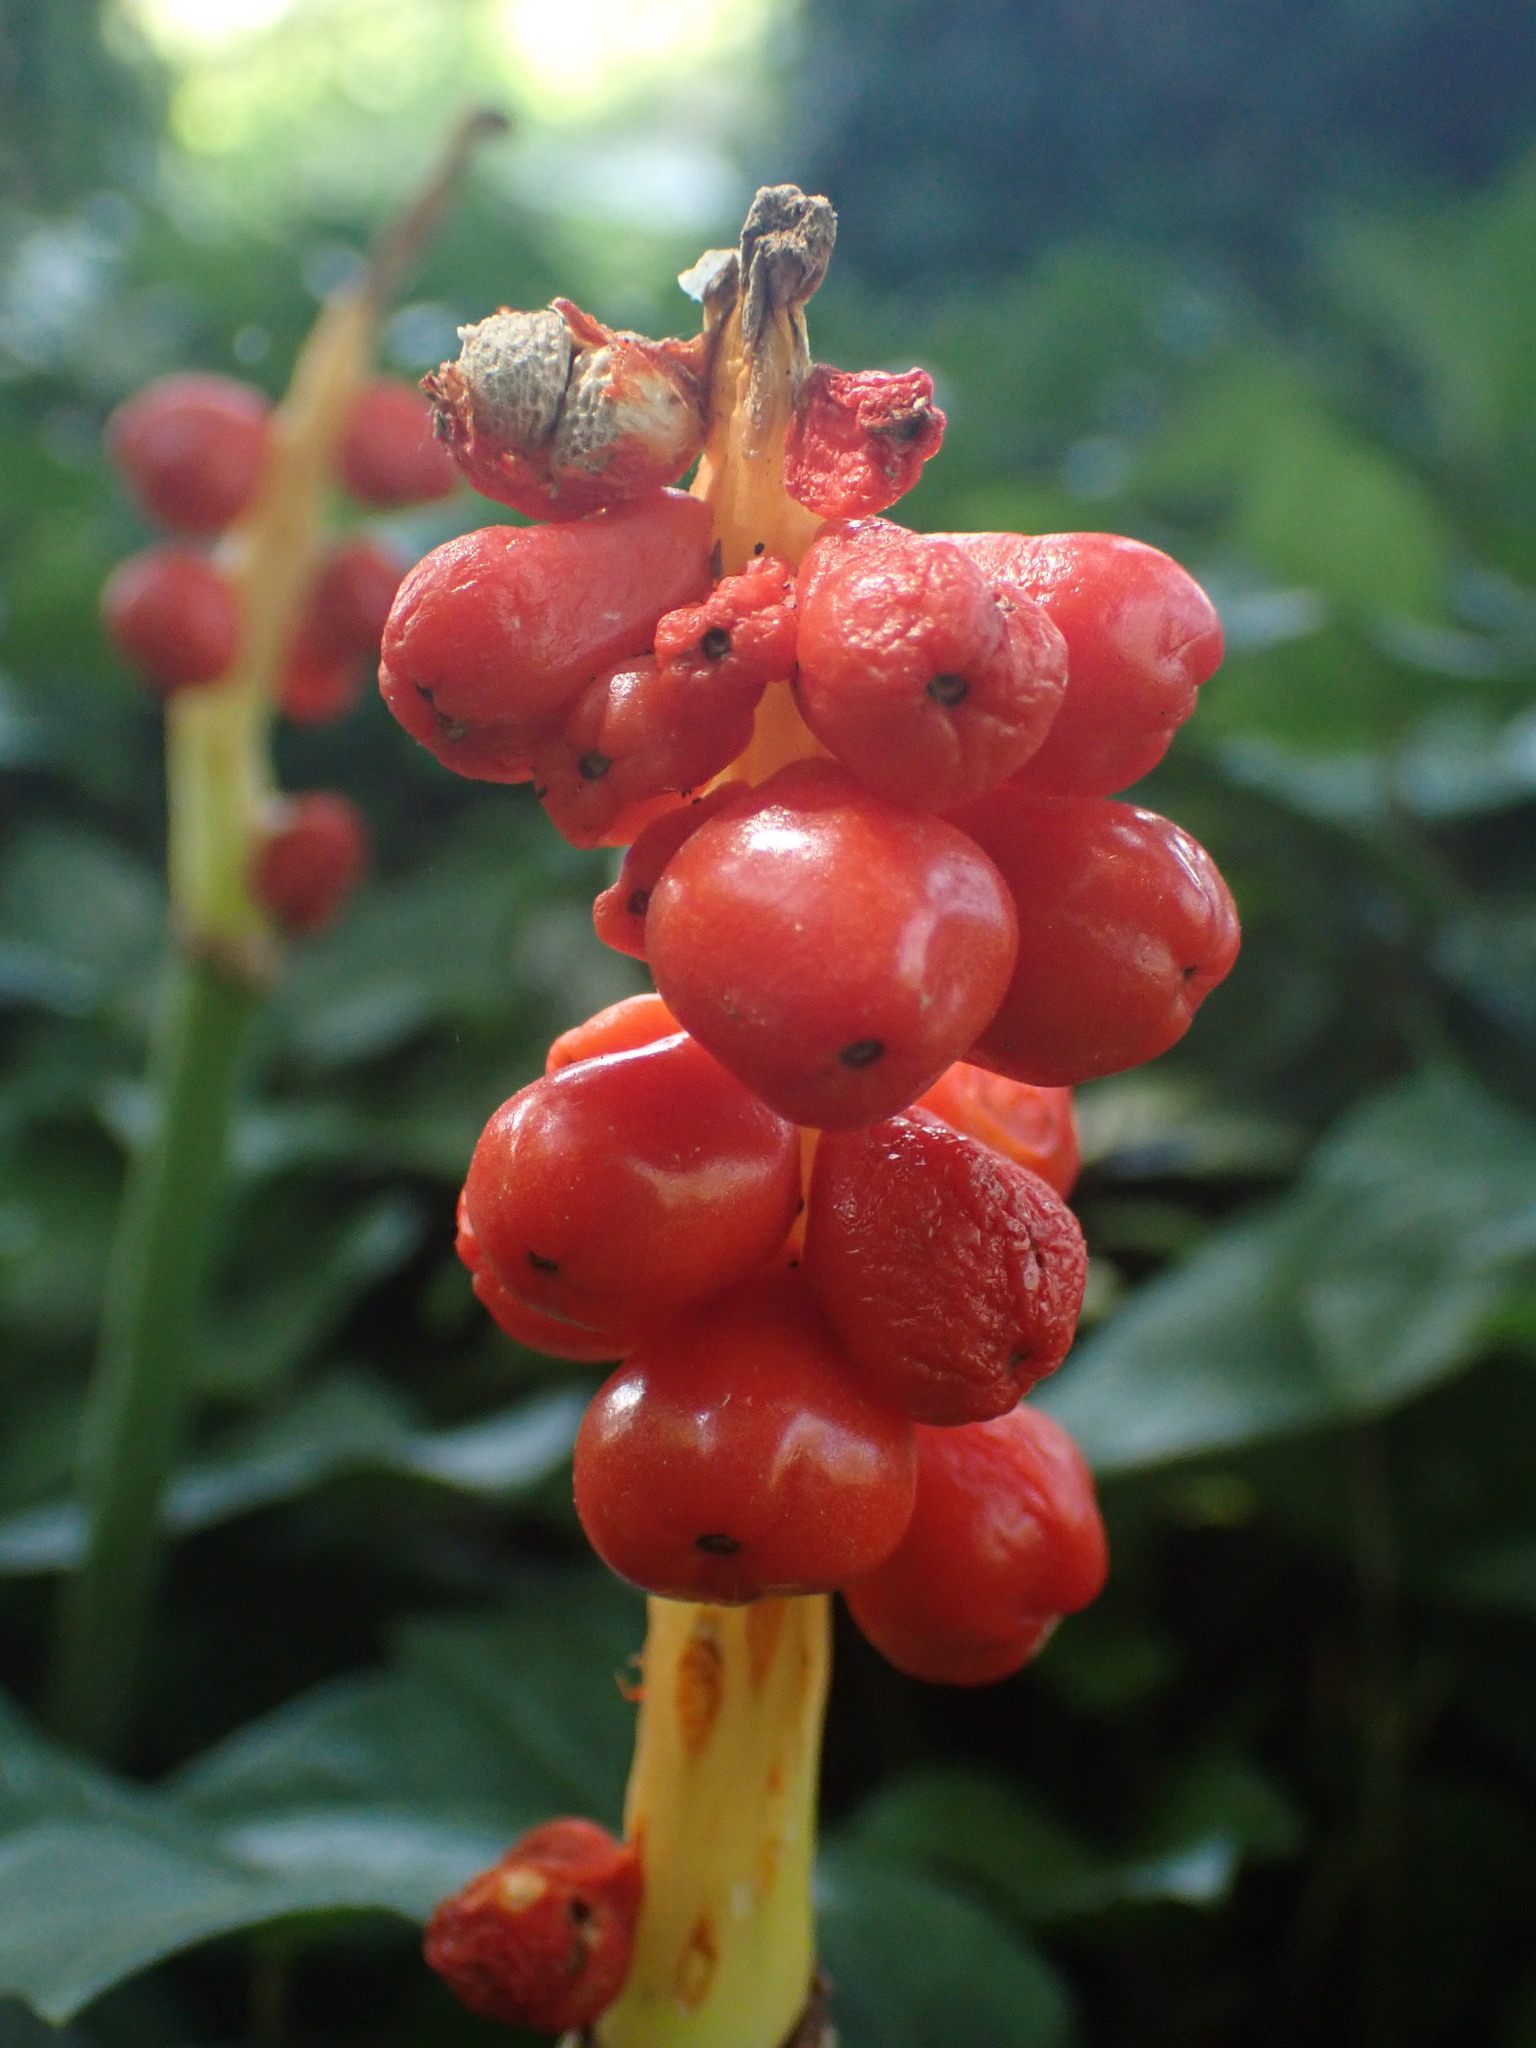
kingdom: Plantae
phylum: Tracheophyta
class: Liliopsida
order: Alismatales
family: Araceae
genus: Arum
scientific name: Arum maculatum
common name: Lords-and-ladies
